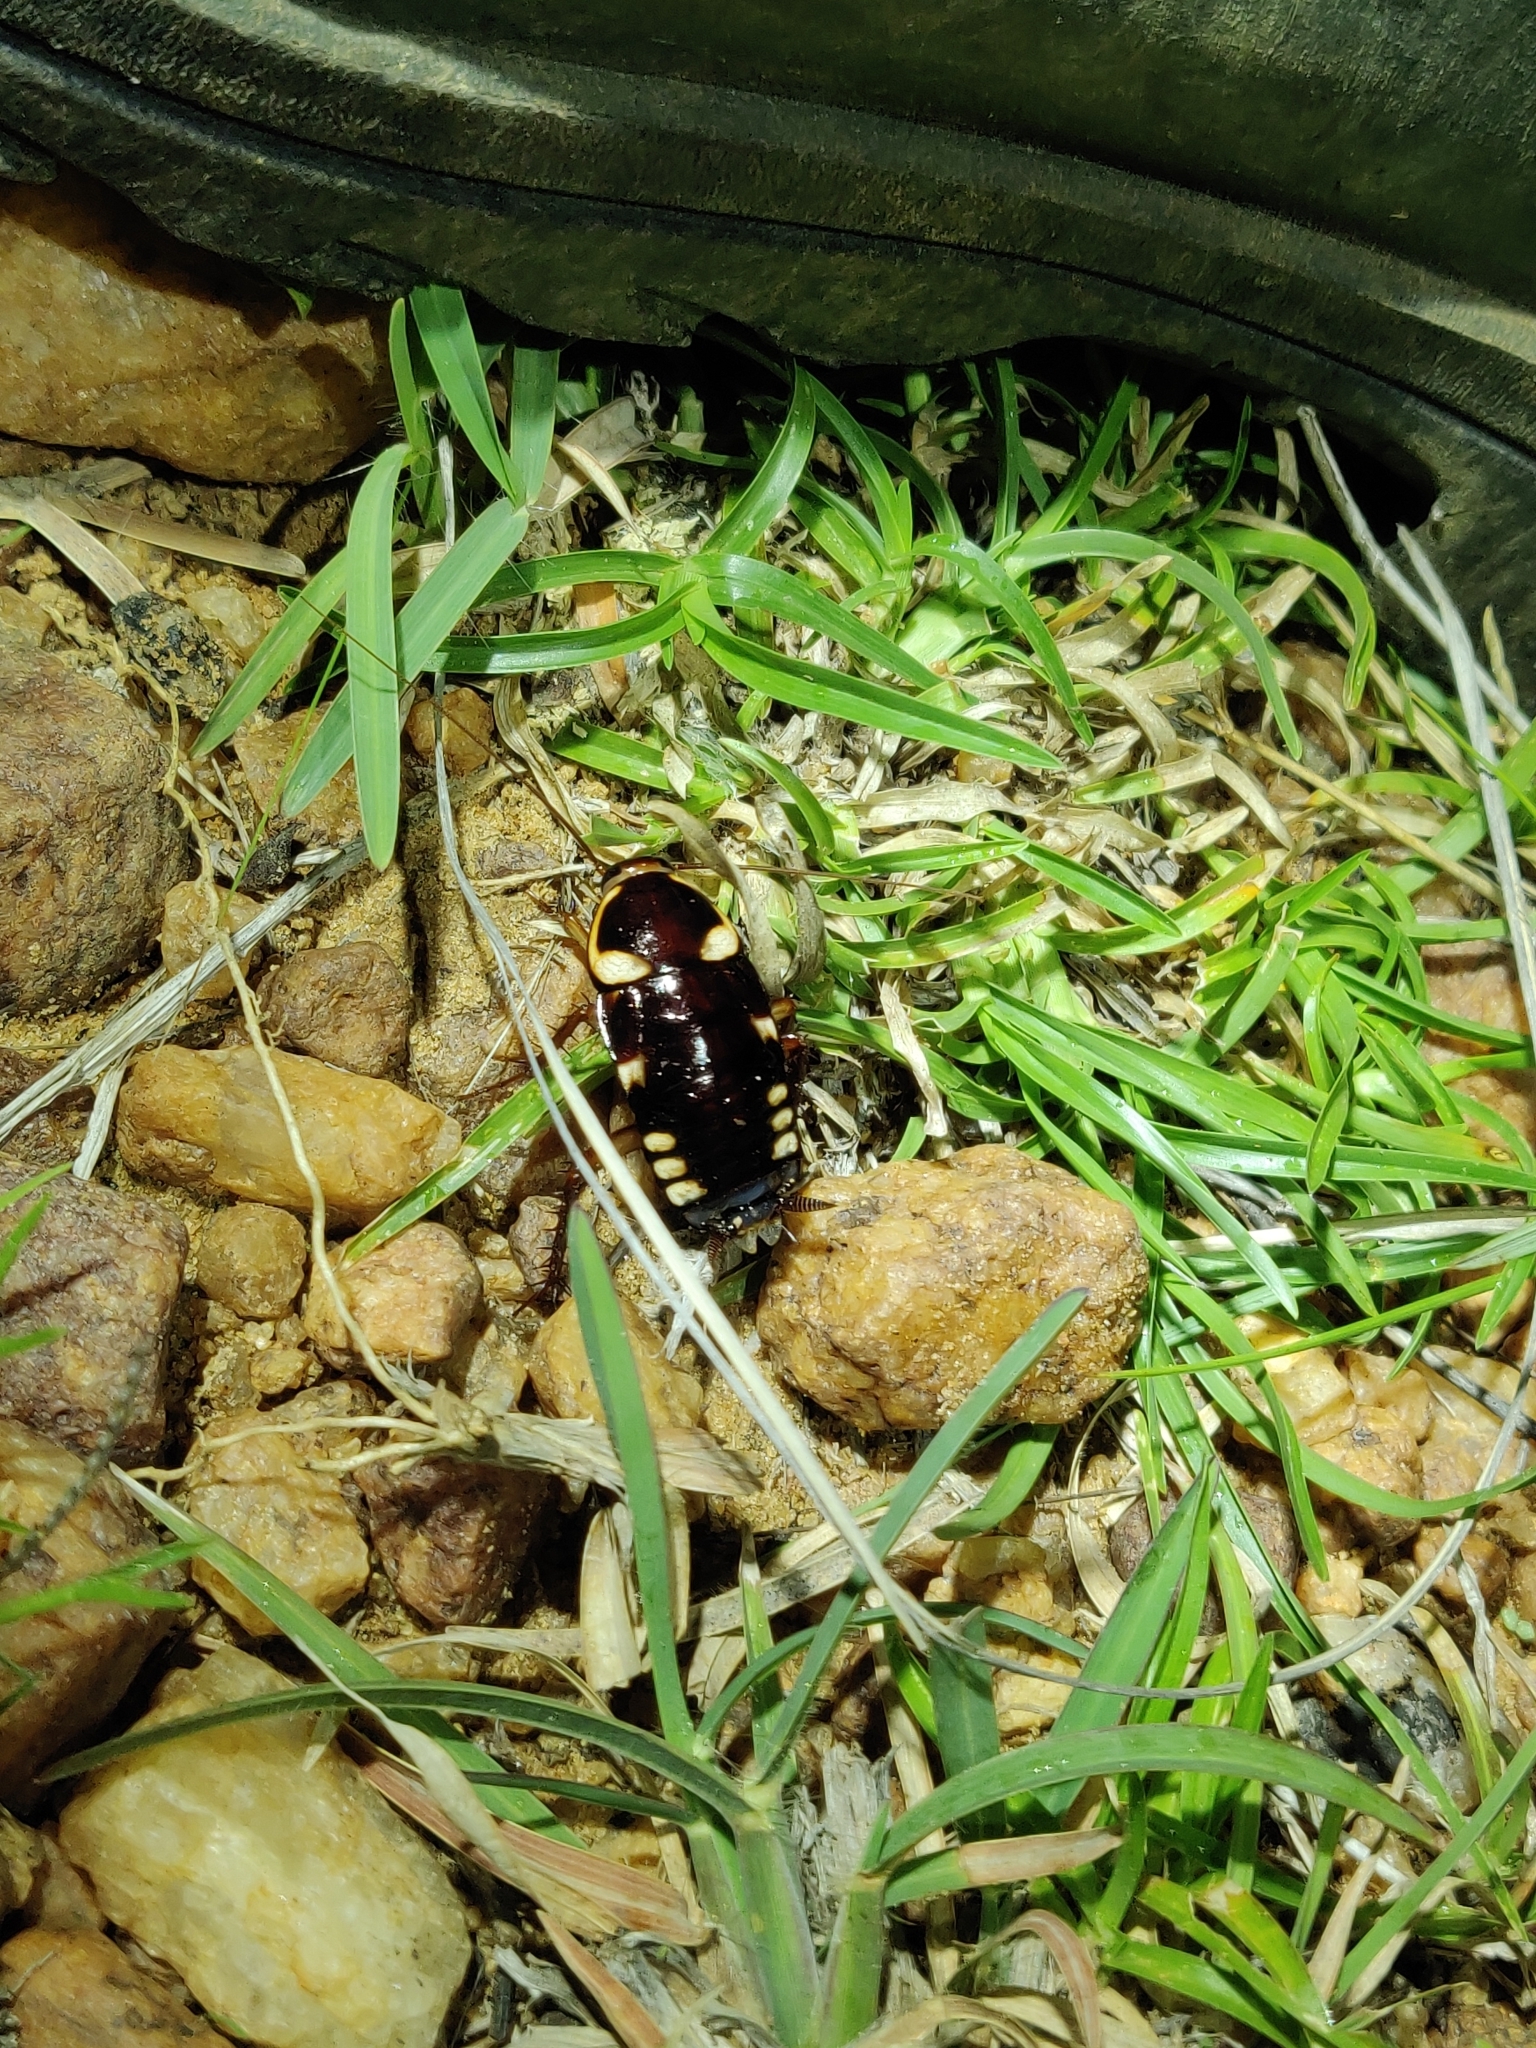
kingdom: Animalia
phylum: Arthropoda
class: Insecta
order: Blattodea
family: Blattidae
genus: Neostylopyga
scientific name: Neostylopyga ornata
